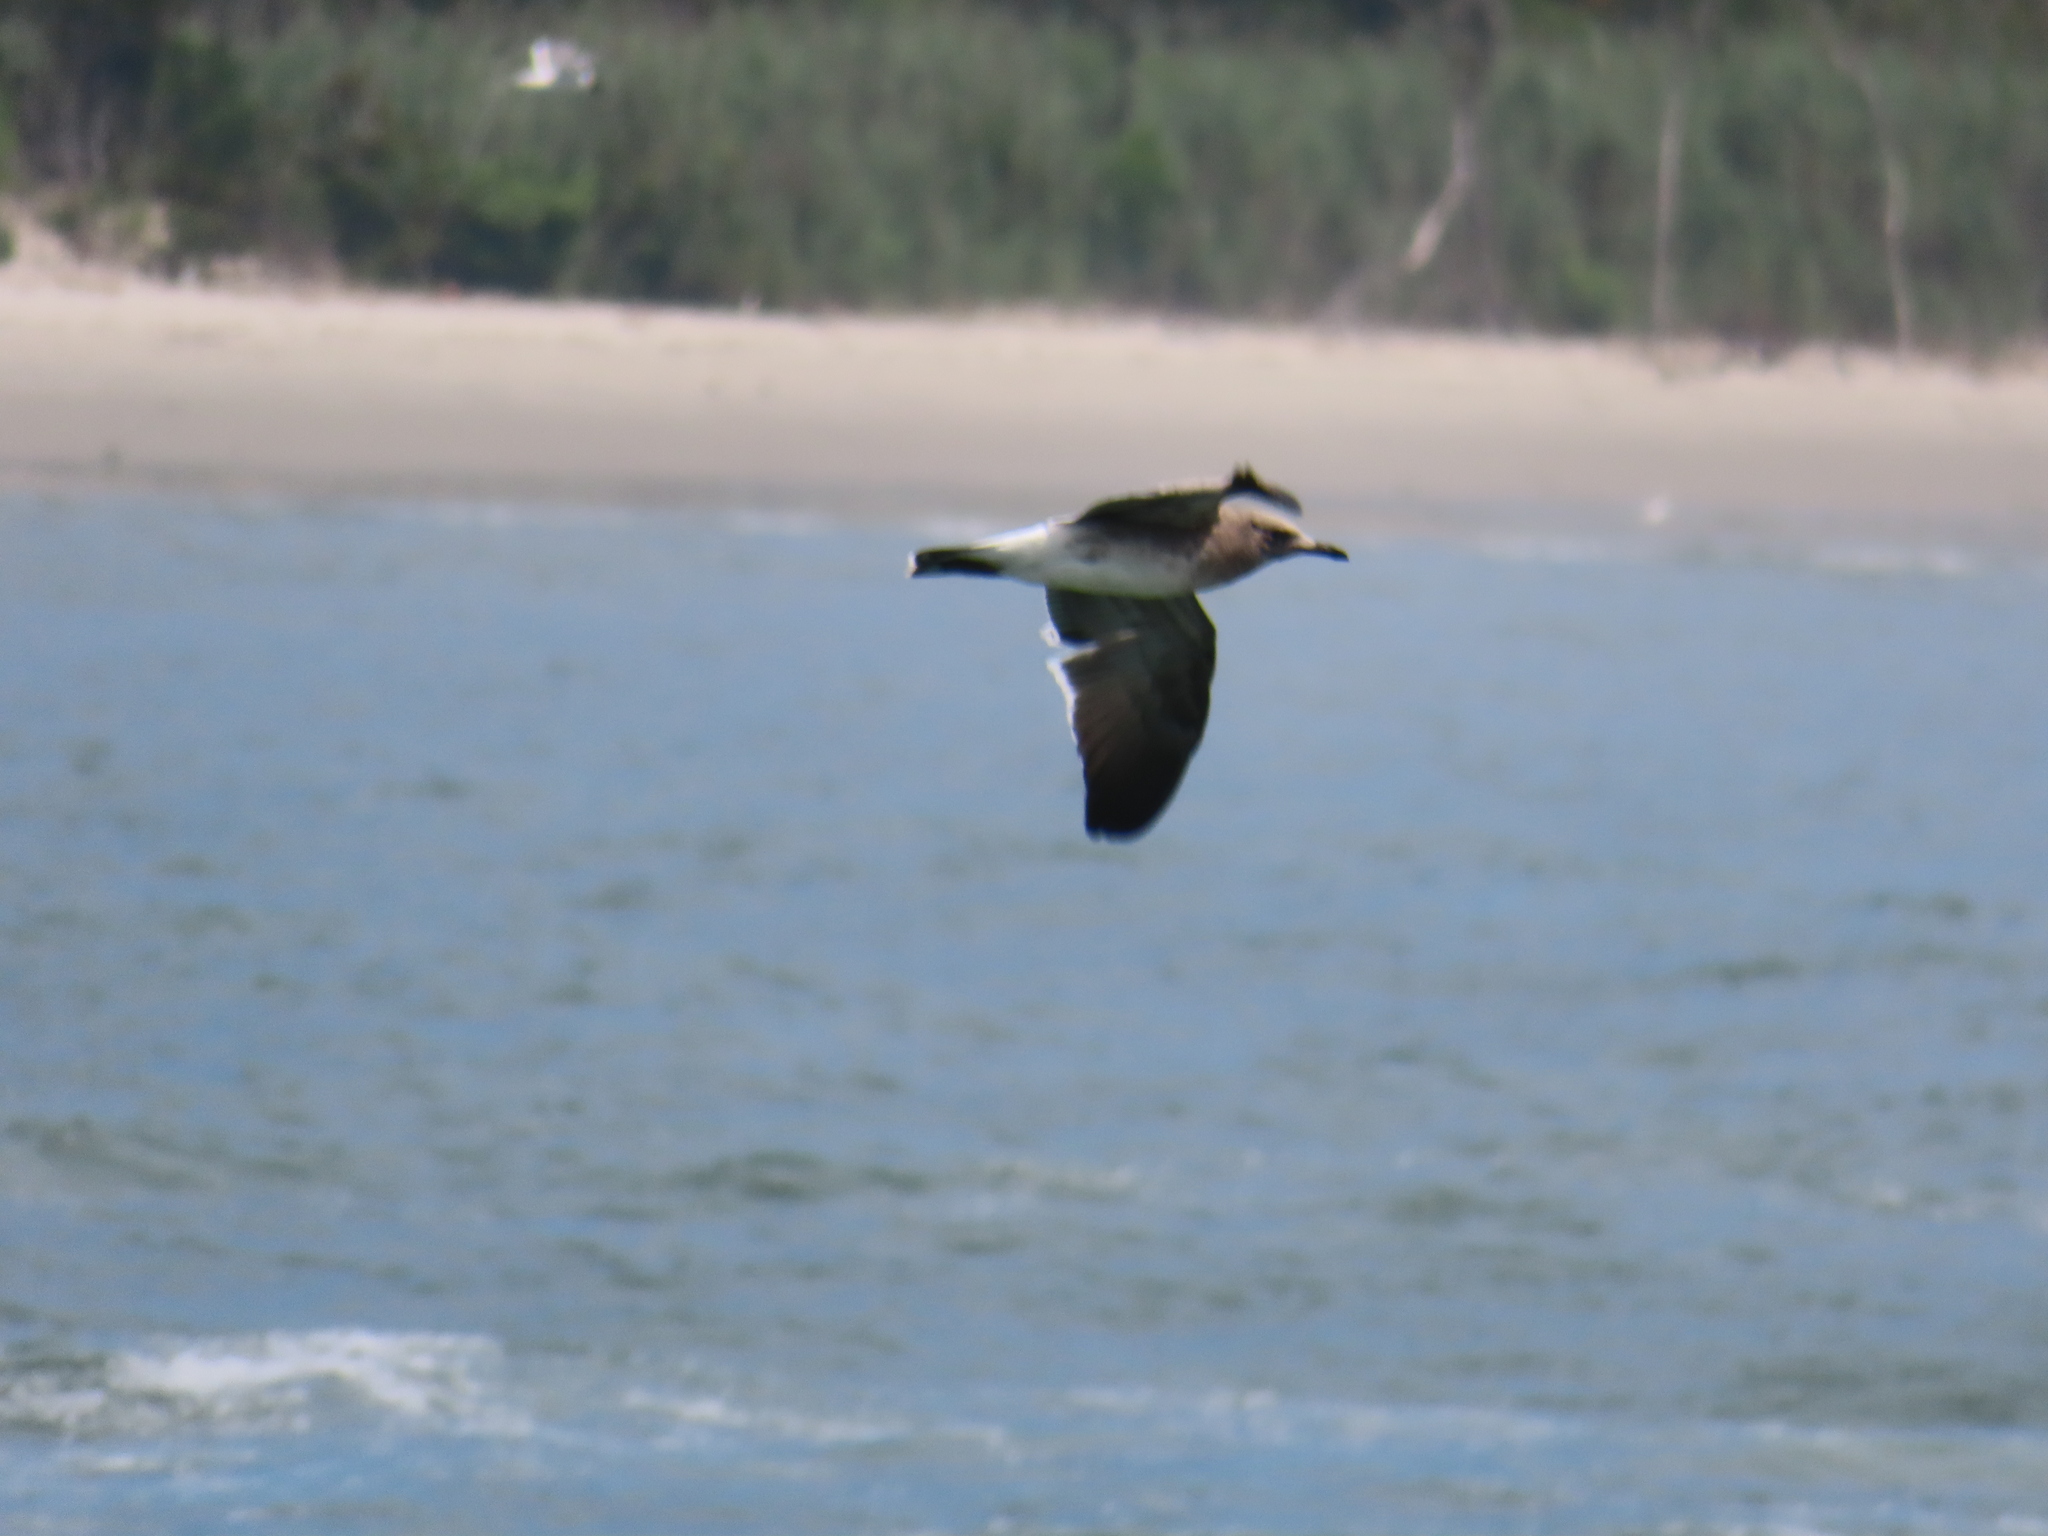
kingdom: Animalia
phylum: Chordata
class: Aves
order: Charadriiformes
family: Laridae
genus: Leucophaeus
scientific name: Leucophaeus atricilla
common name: Laughing gull
